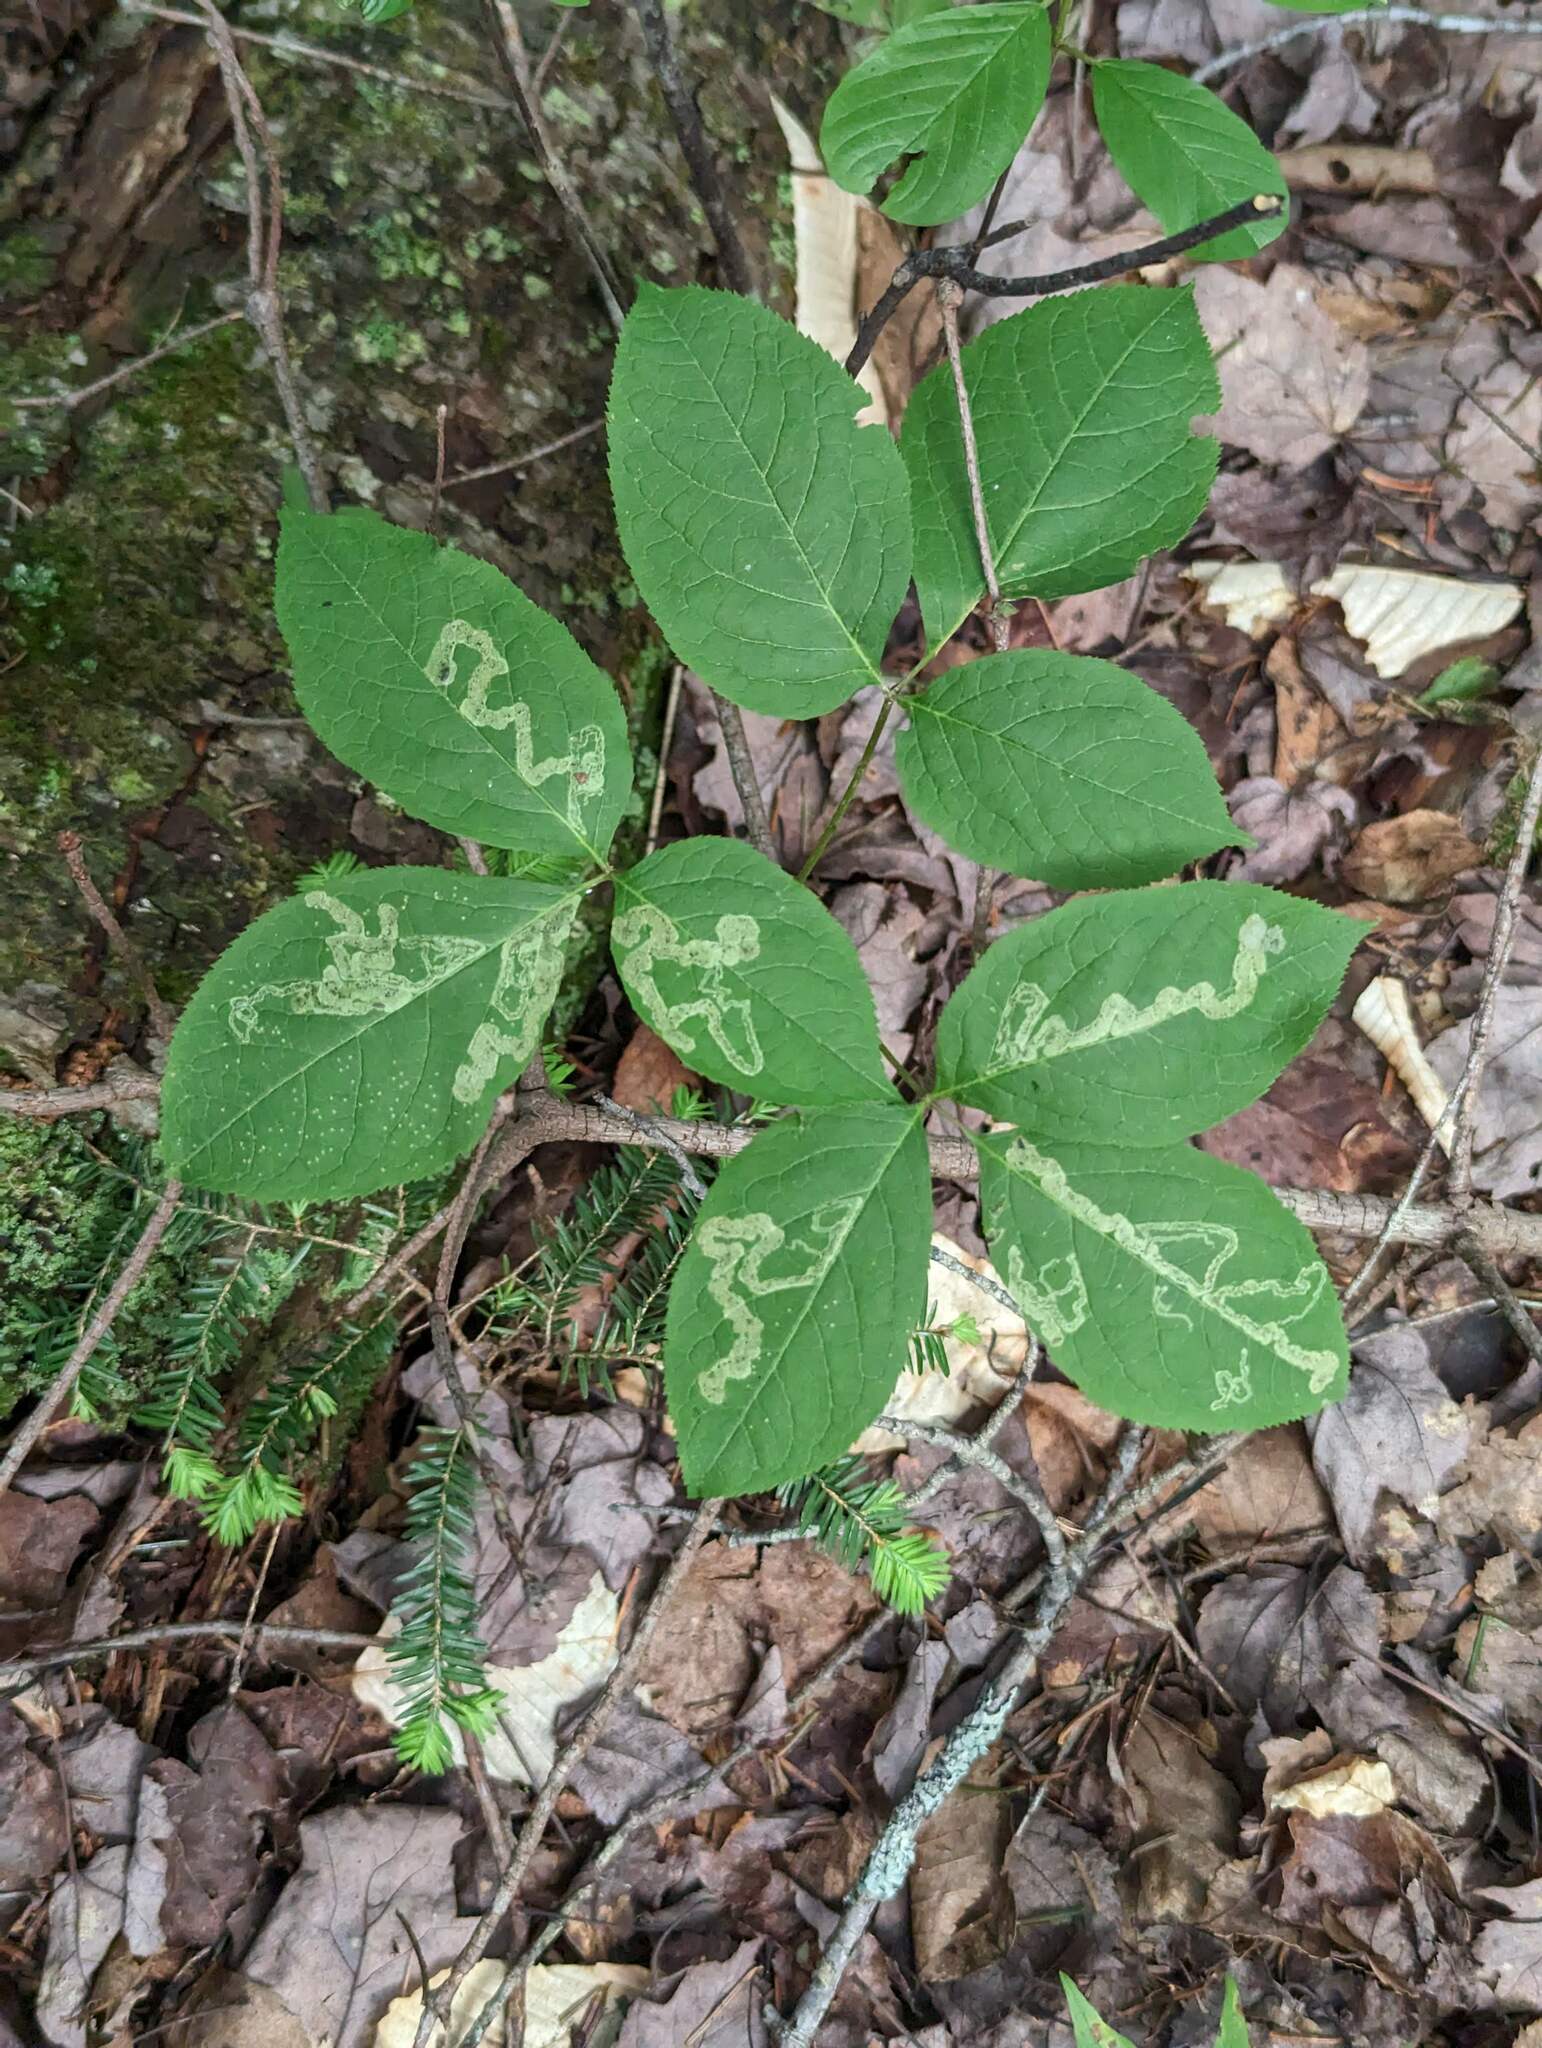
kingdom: Plantae
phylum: Tracheophyta
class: Magnoliopsida
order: Apiales
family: Araliaceae
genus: Aralia
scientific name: Aralia nudicaulis
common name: Wild sarsaparilla
